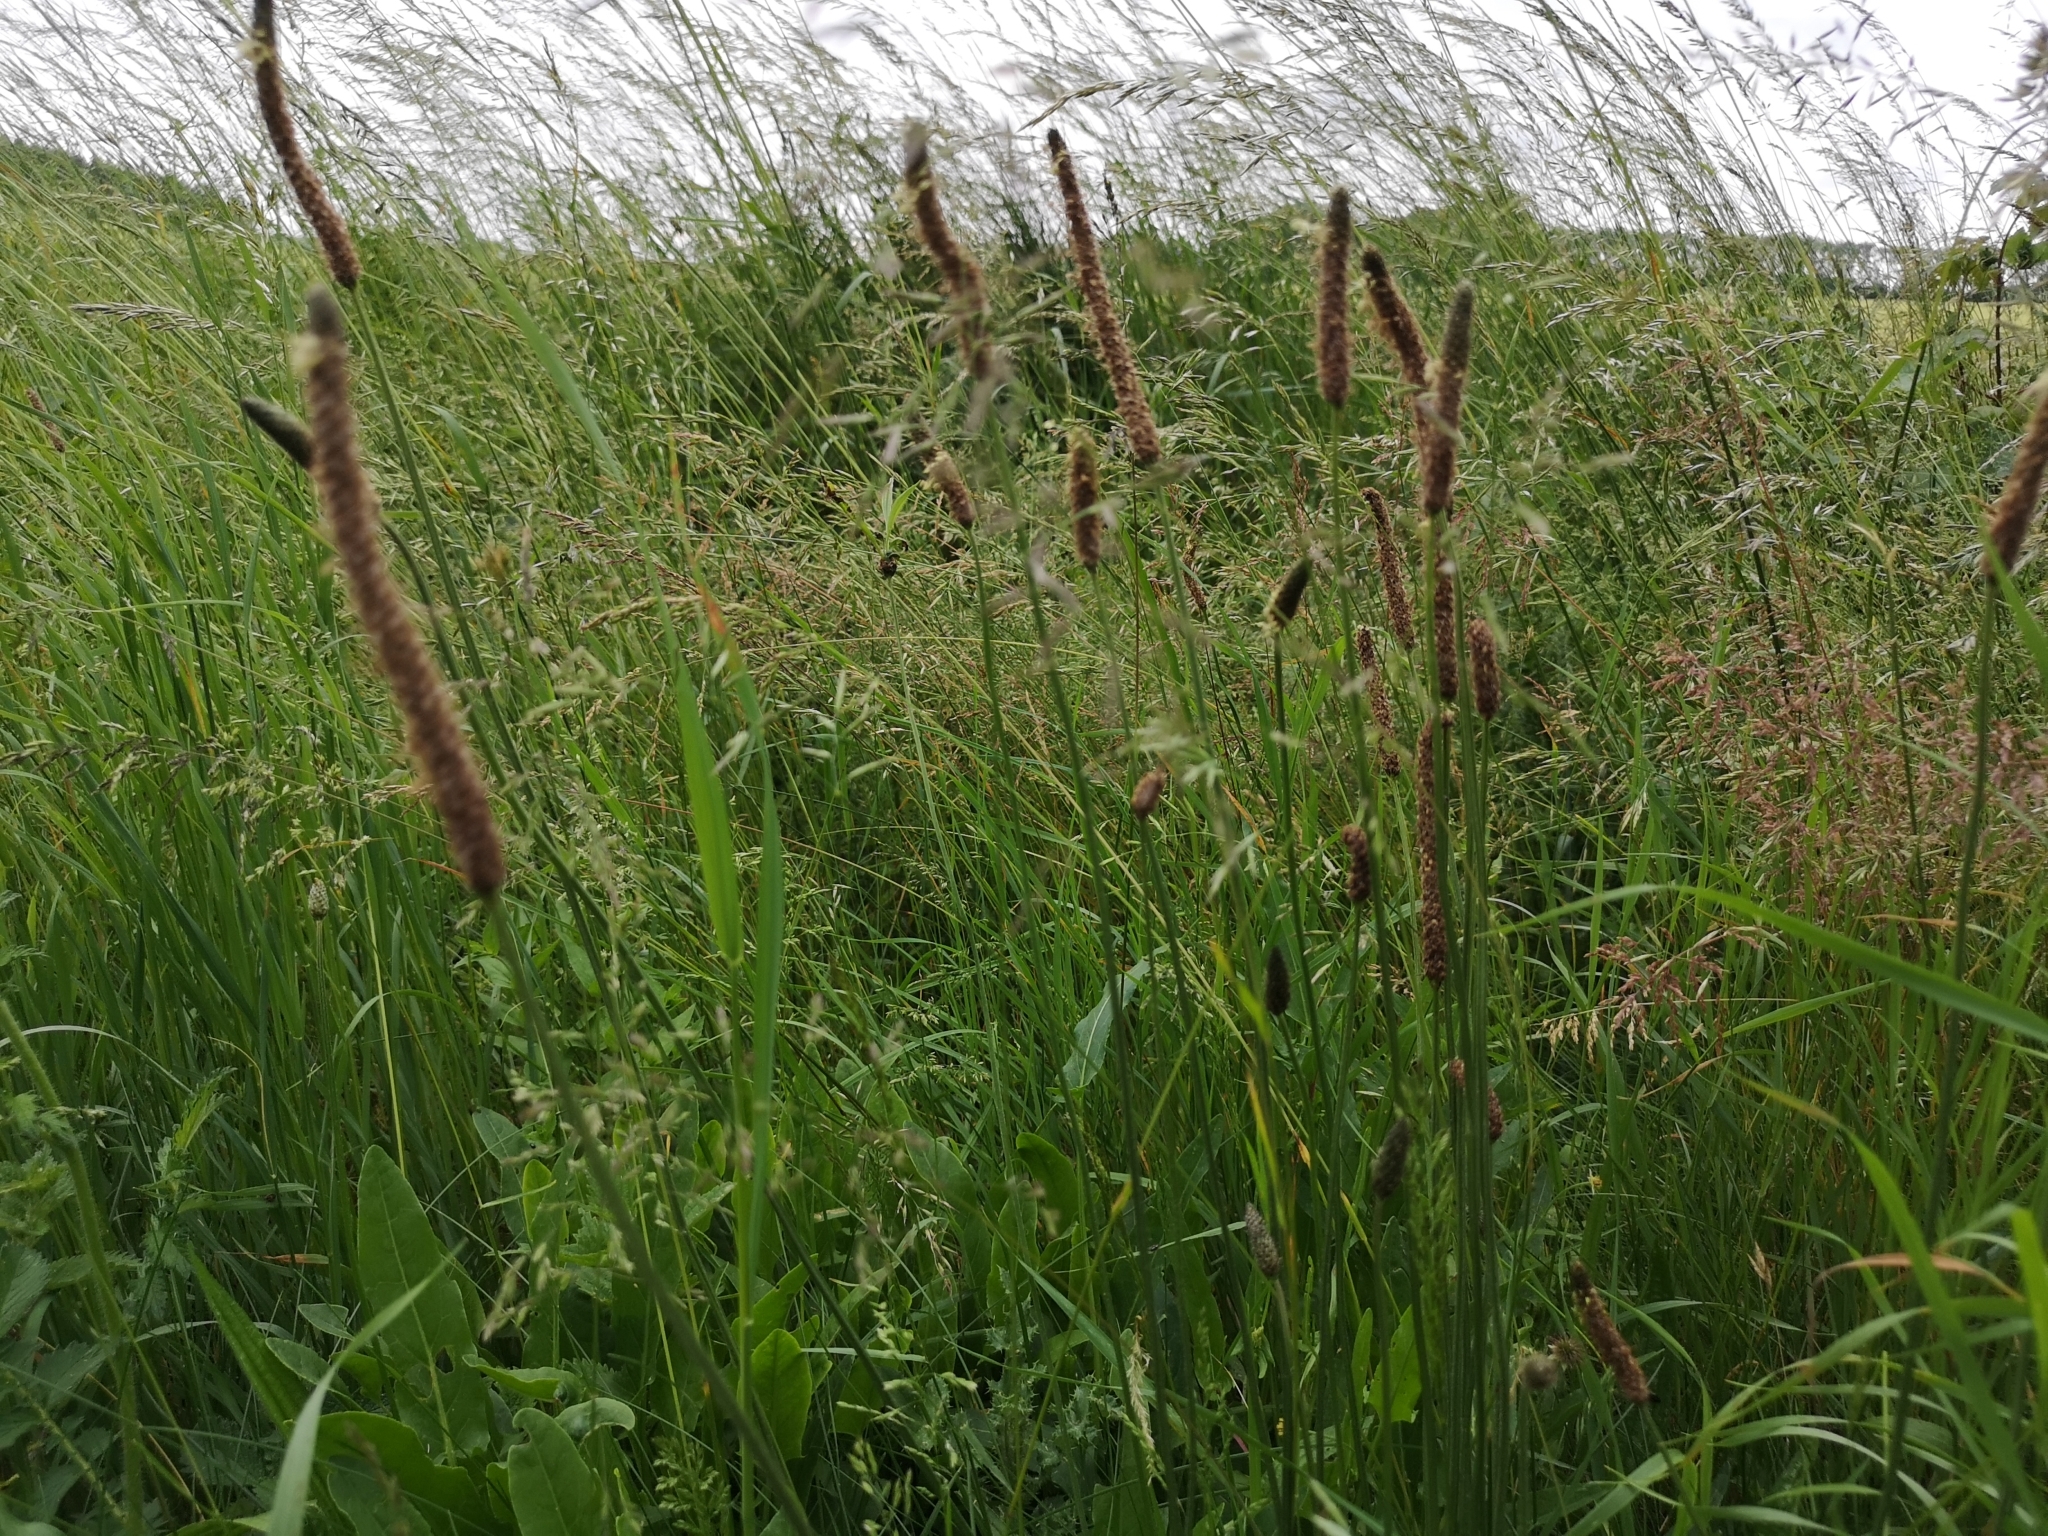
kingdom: Plantae
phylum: Tracheophyta
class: Magnoliopsida
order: Lamiales
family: Plantaginaceae
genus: Plantago
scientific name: Plantago lanceolata
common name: Ribwort plantain
